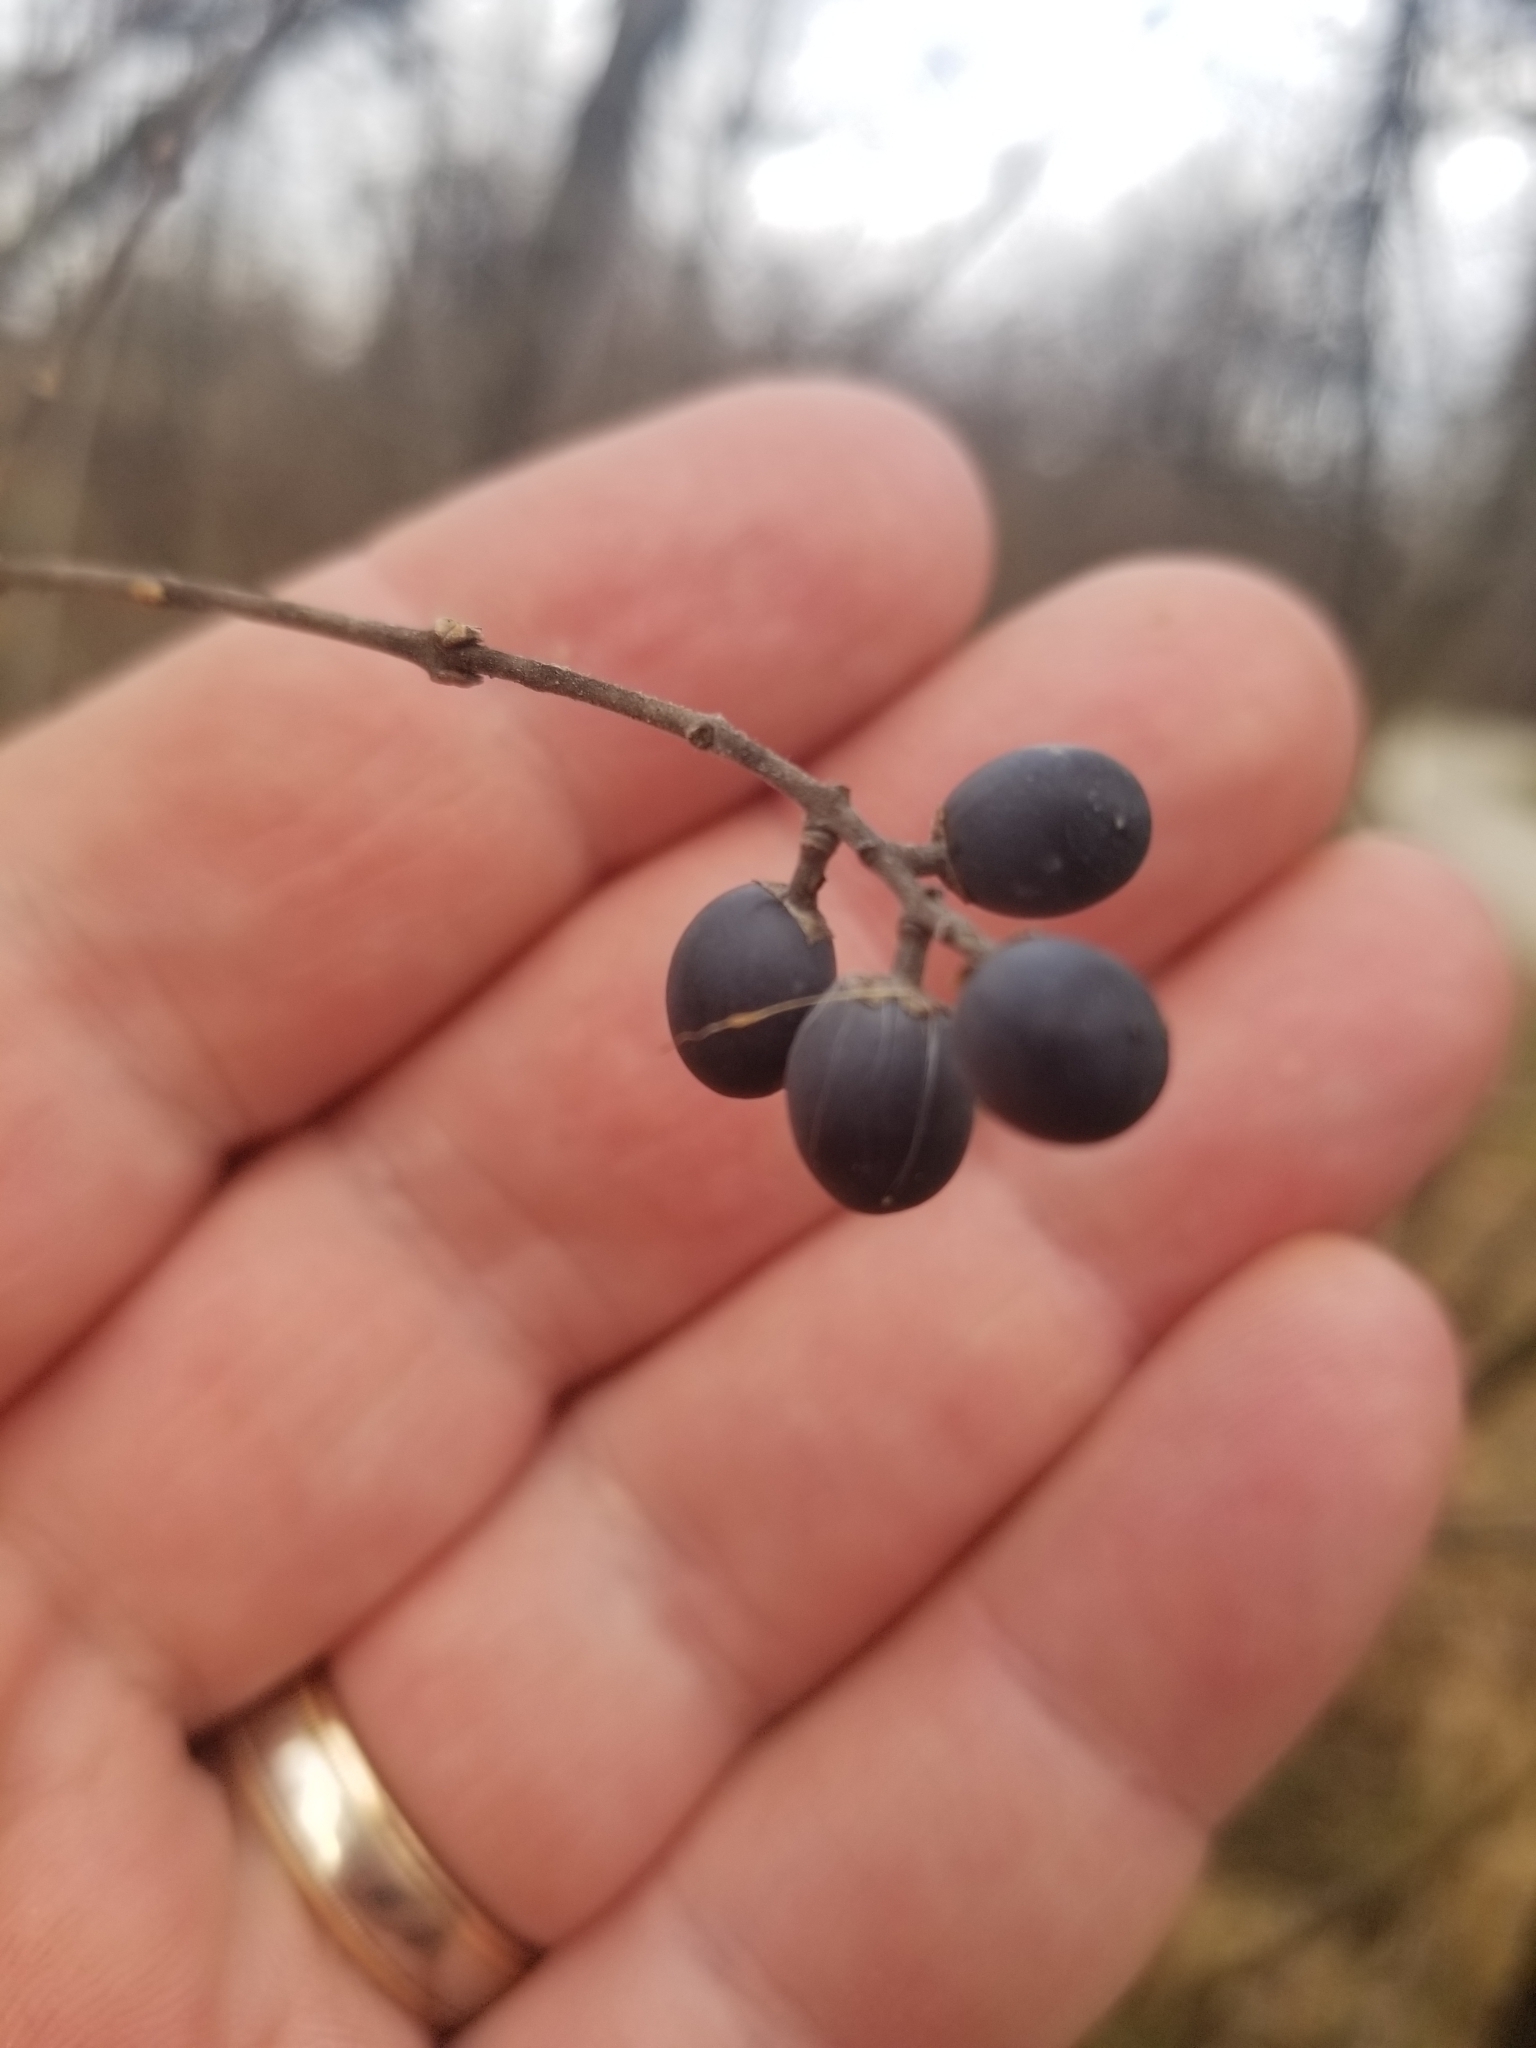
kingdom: Plantae
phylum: Tracheophyta
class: Magnoliopsida
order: Lamiales
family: Oleaceae
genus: Ligustrum
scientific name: Ligustrum obtusifolium
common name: Border privet
